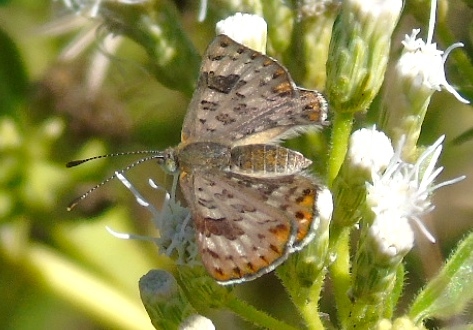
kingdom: Animalia
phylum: Arthropoda
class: Insecta
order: Lepidoptera
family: Riodinidae
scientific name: Riodinidae
